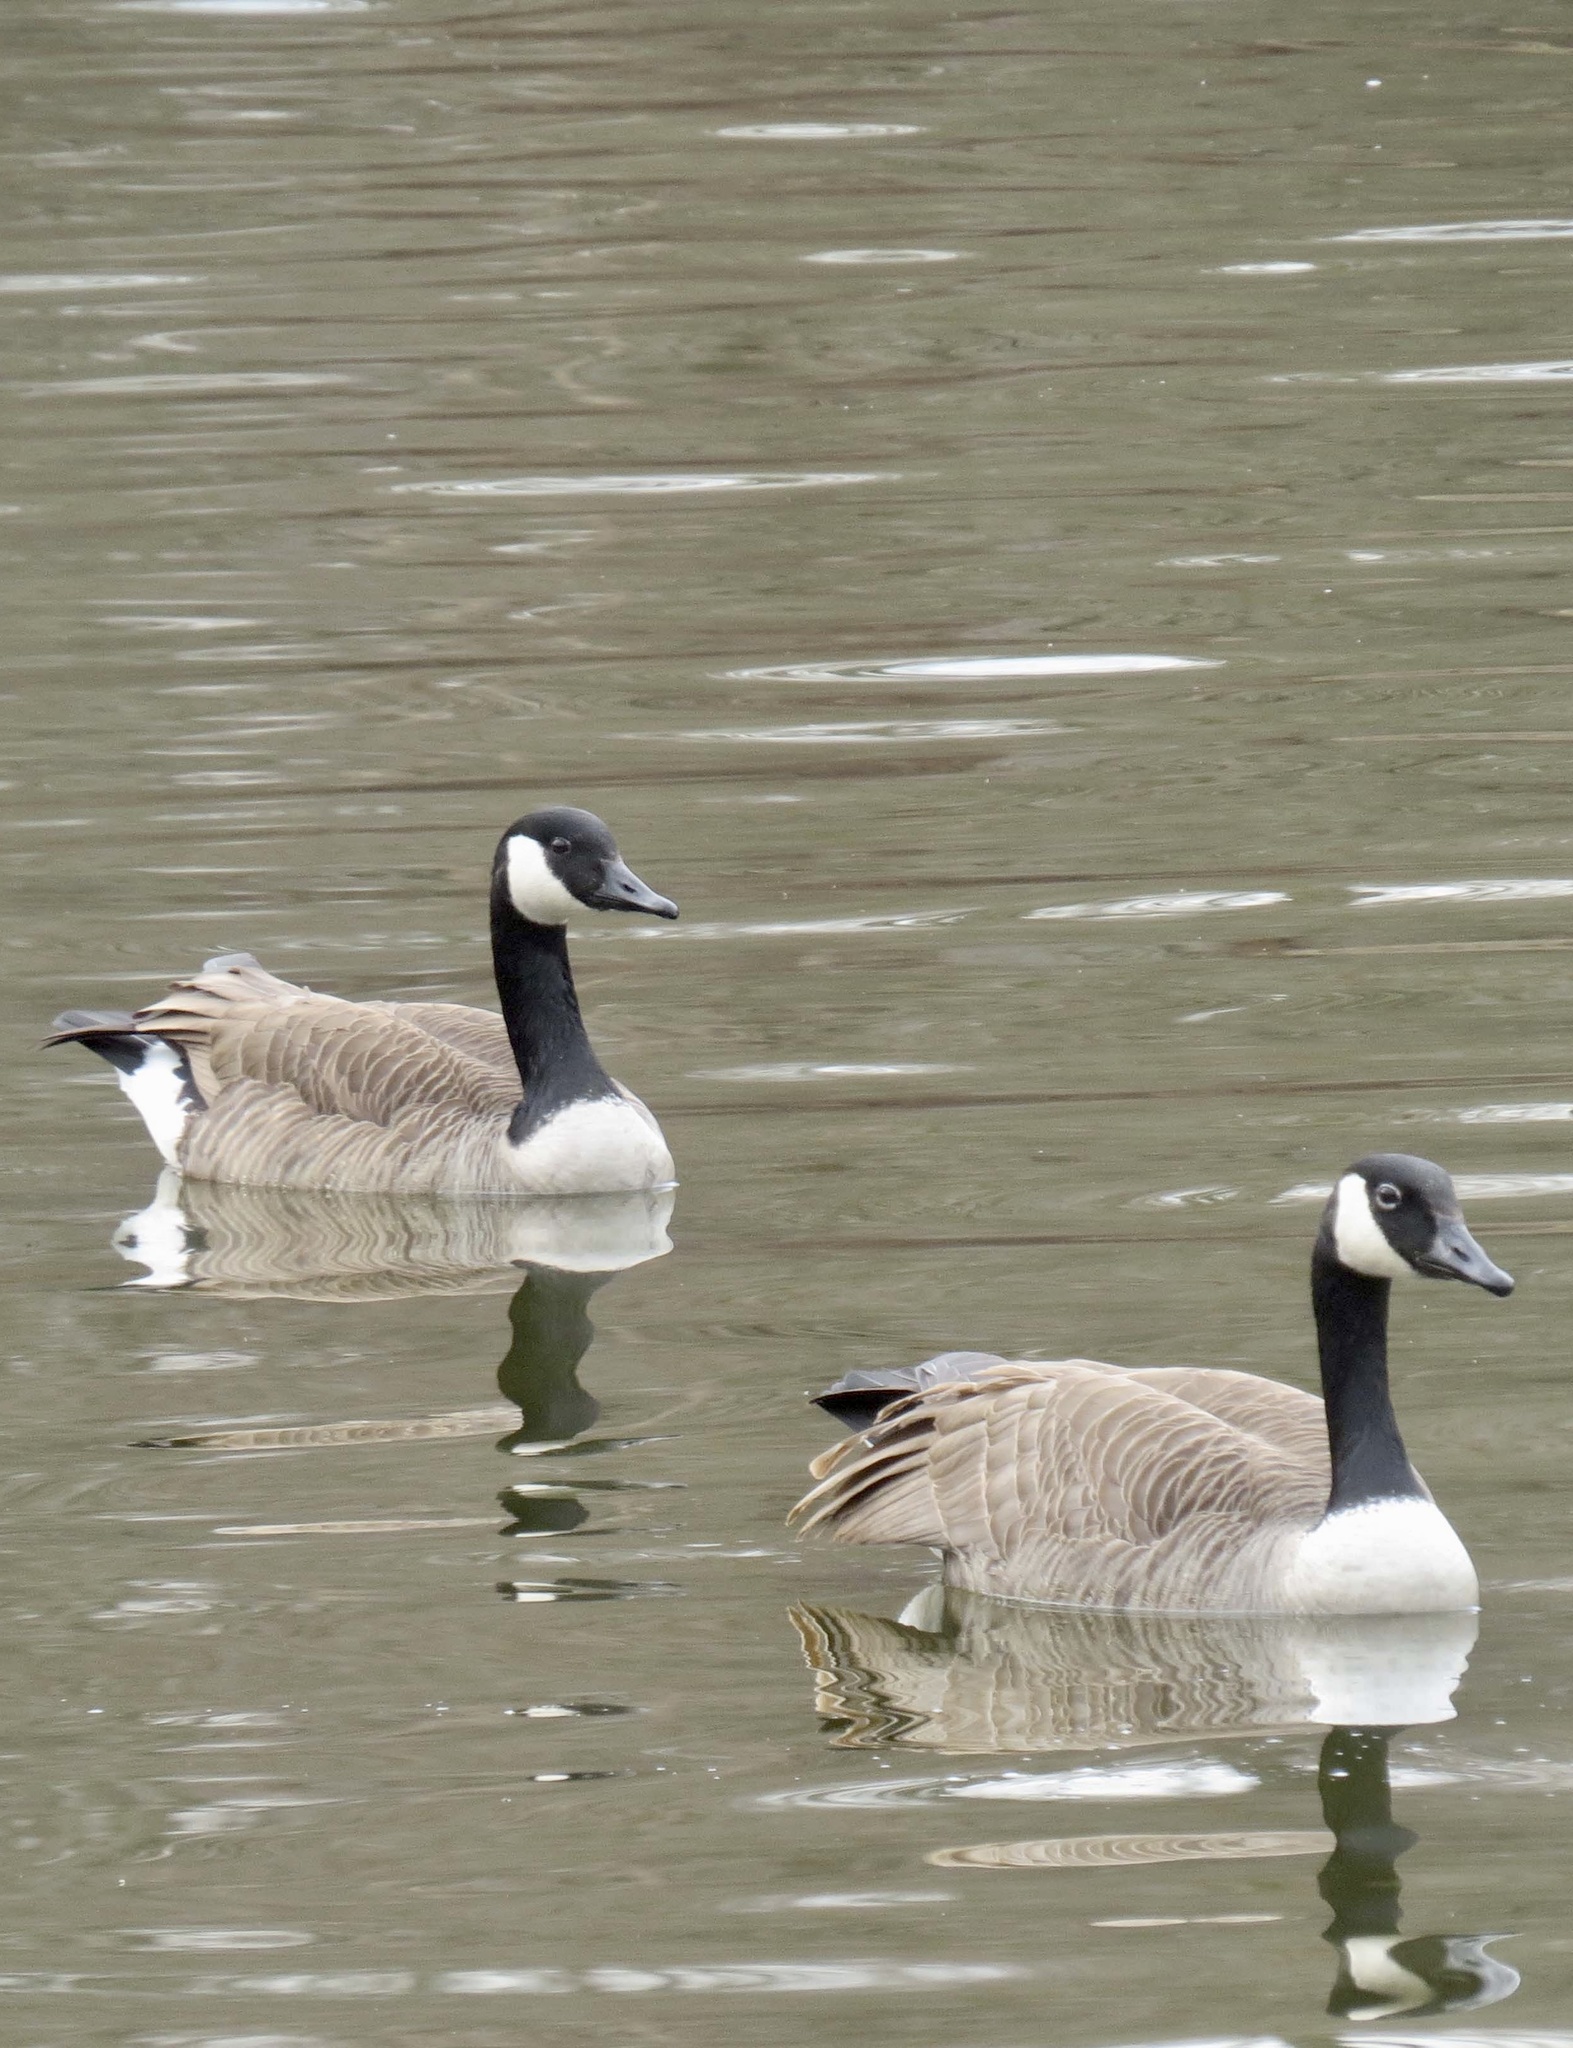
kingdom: Animalia
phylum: Chordata
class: Aves
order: Anseriformes
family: Anatidae
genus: Branta
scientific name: Branta canadensis
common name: Canada goose
